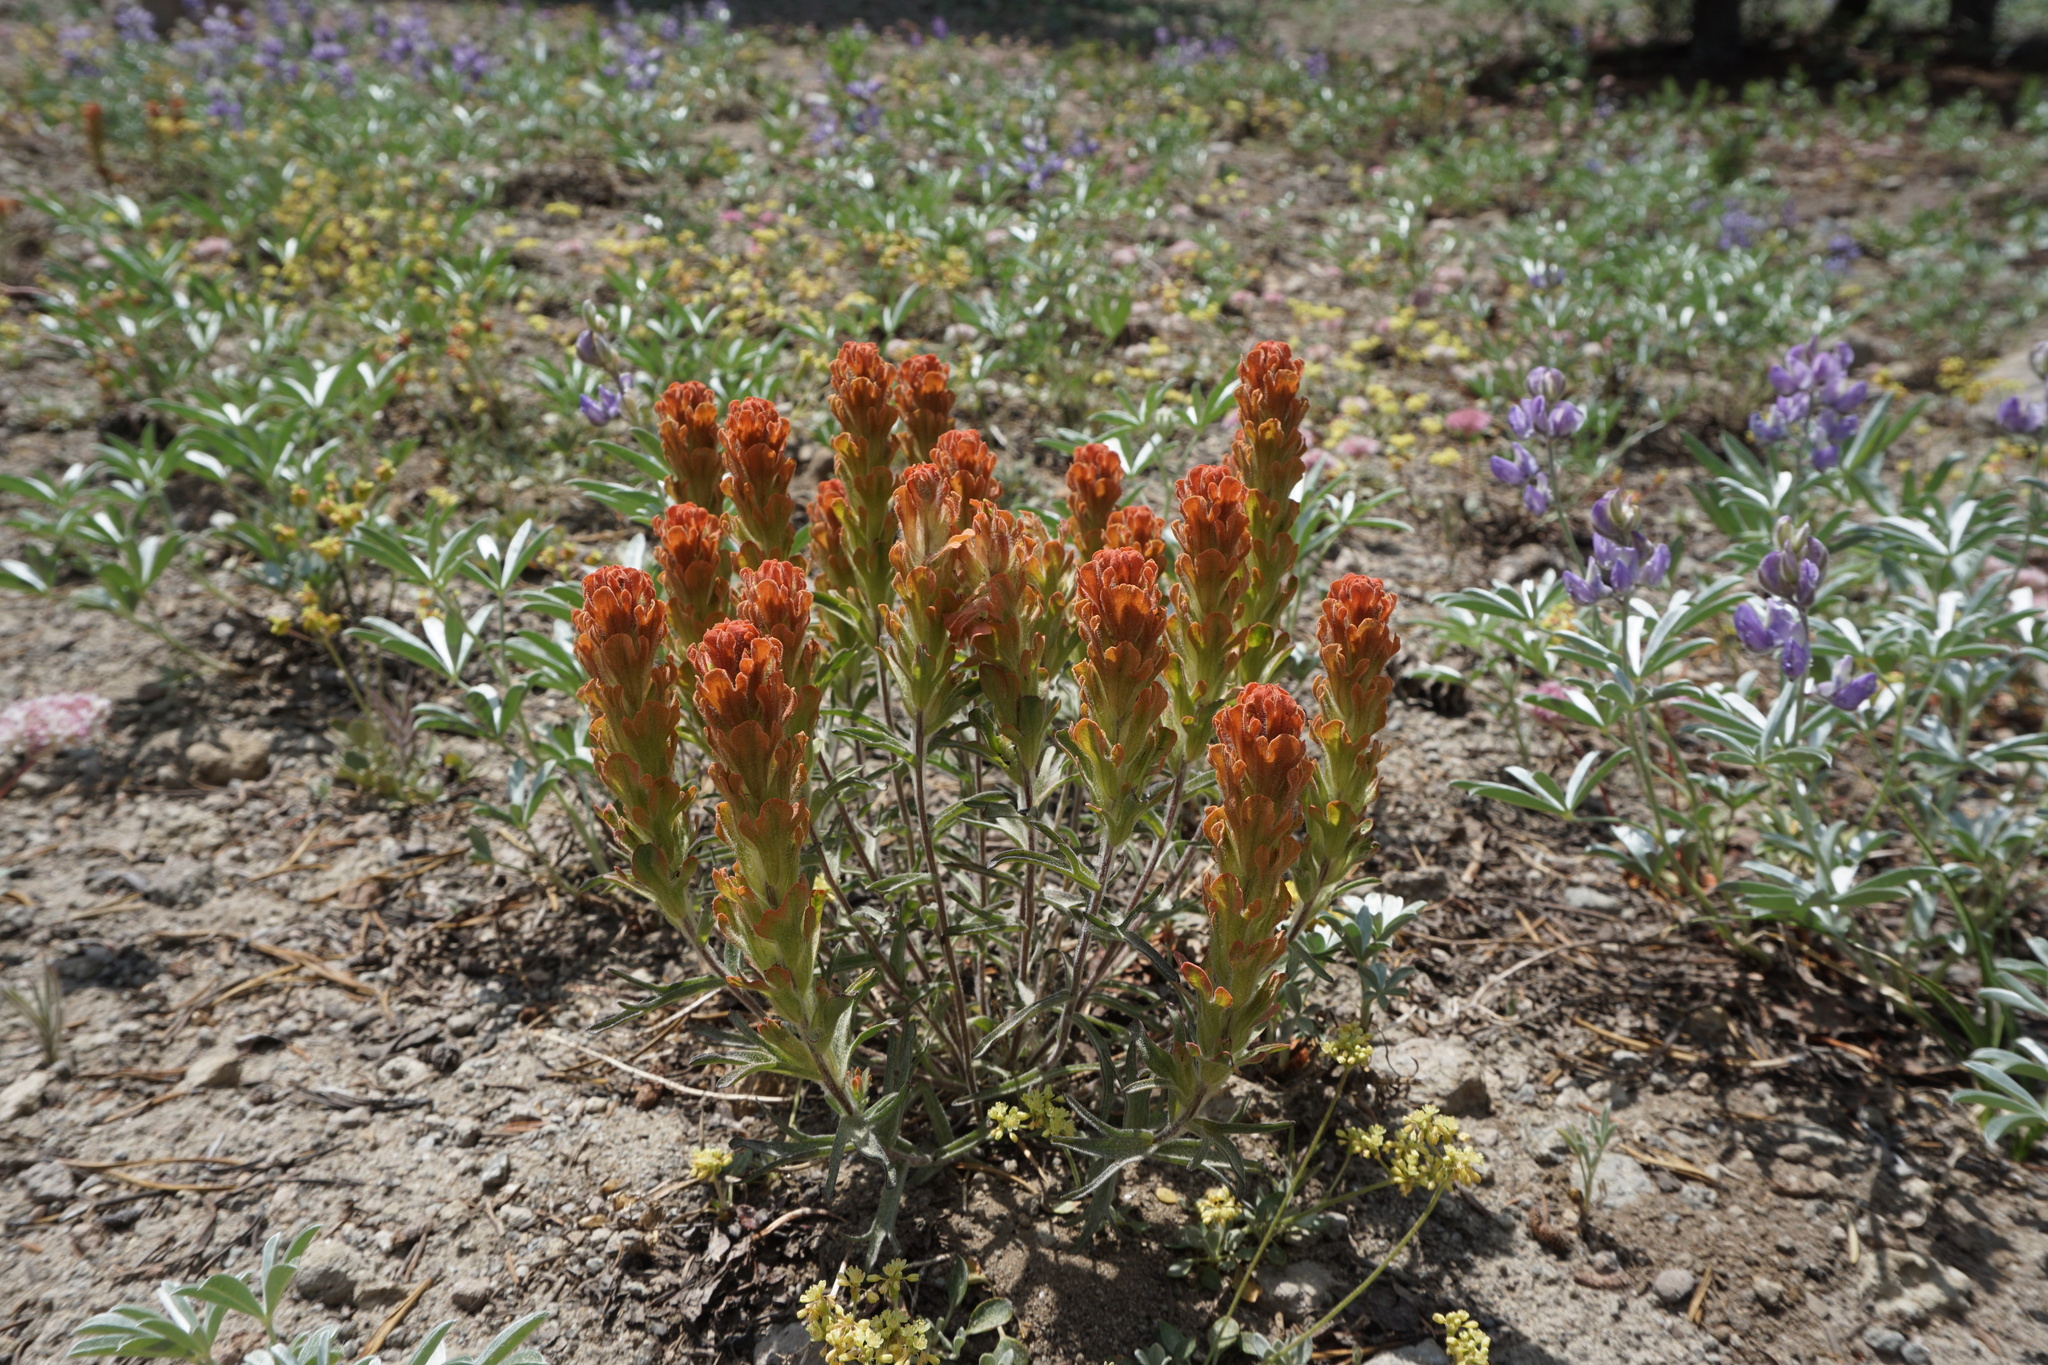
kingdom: Plantae
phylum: Tracheophyta
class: Magnoliopsida
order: Lamiales
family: Orobanchaceae
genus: Castilleja
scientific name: Castilleja arachnoidea
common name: Cobwebby indian paintbrush
